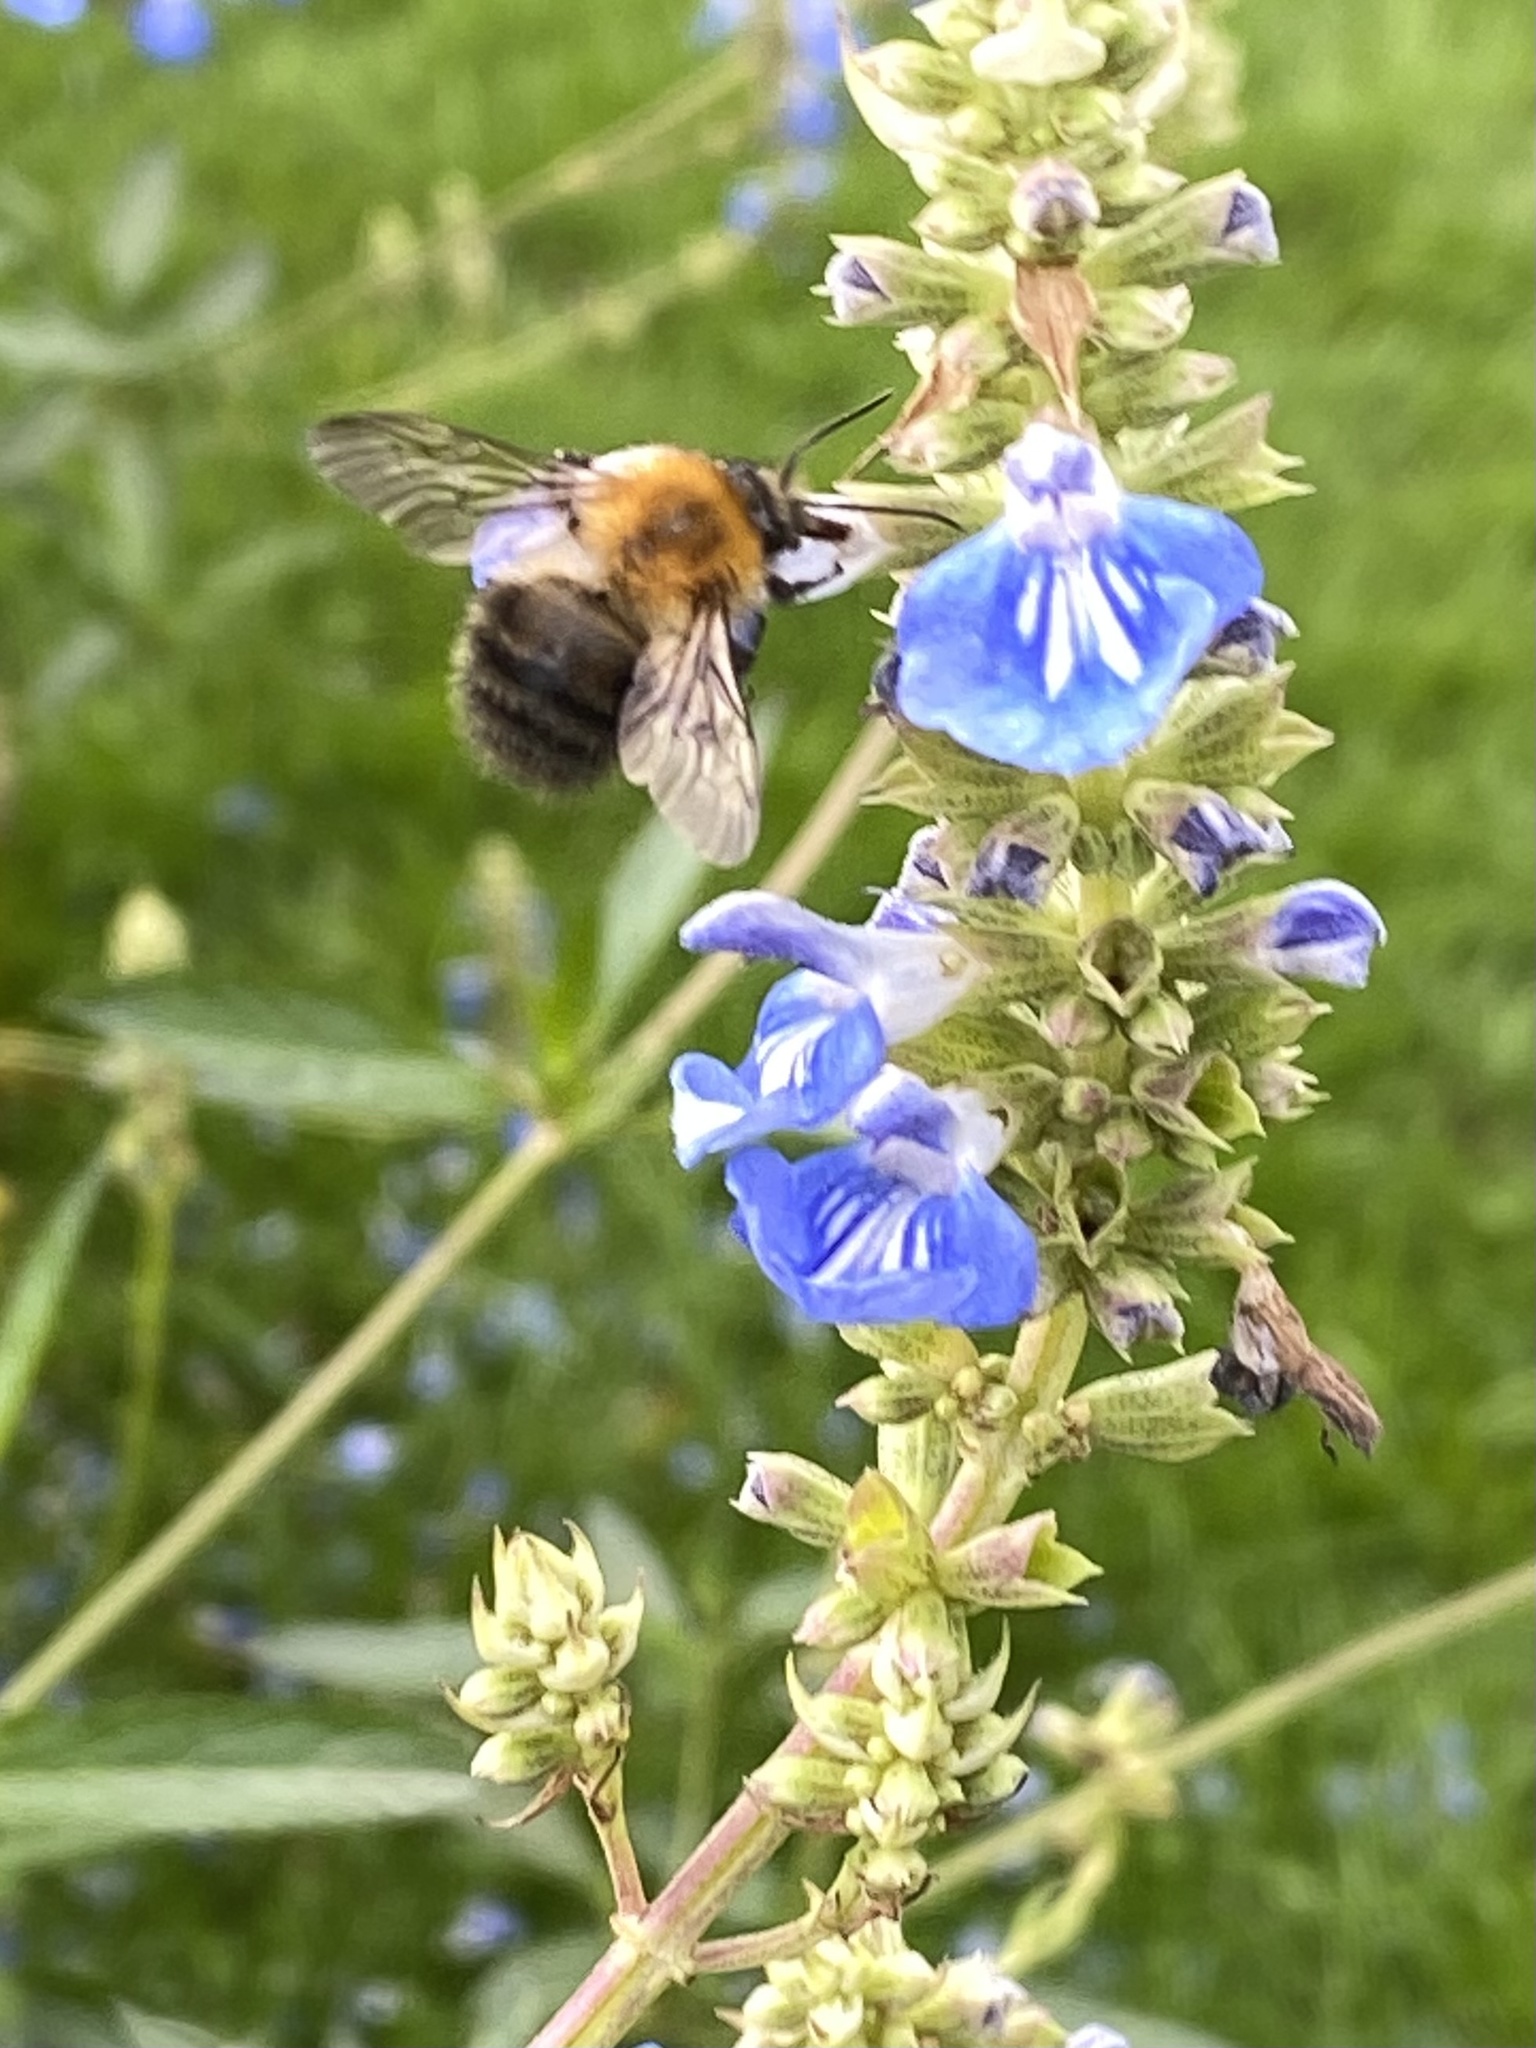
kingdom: Animalia
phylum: Arthropoda
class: Insecta
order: Hymenoptera
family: Apidae
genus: Bombus
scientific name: Bombus pascuorum
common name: Common carder bee
